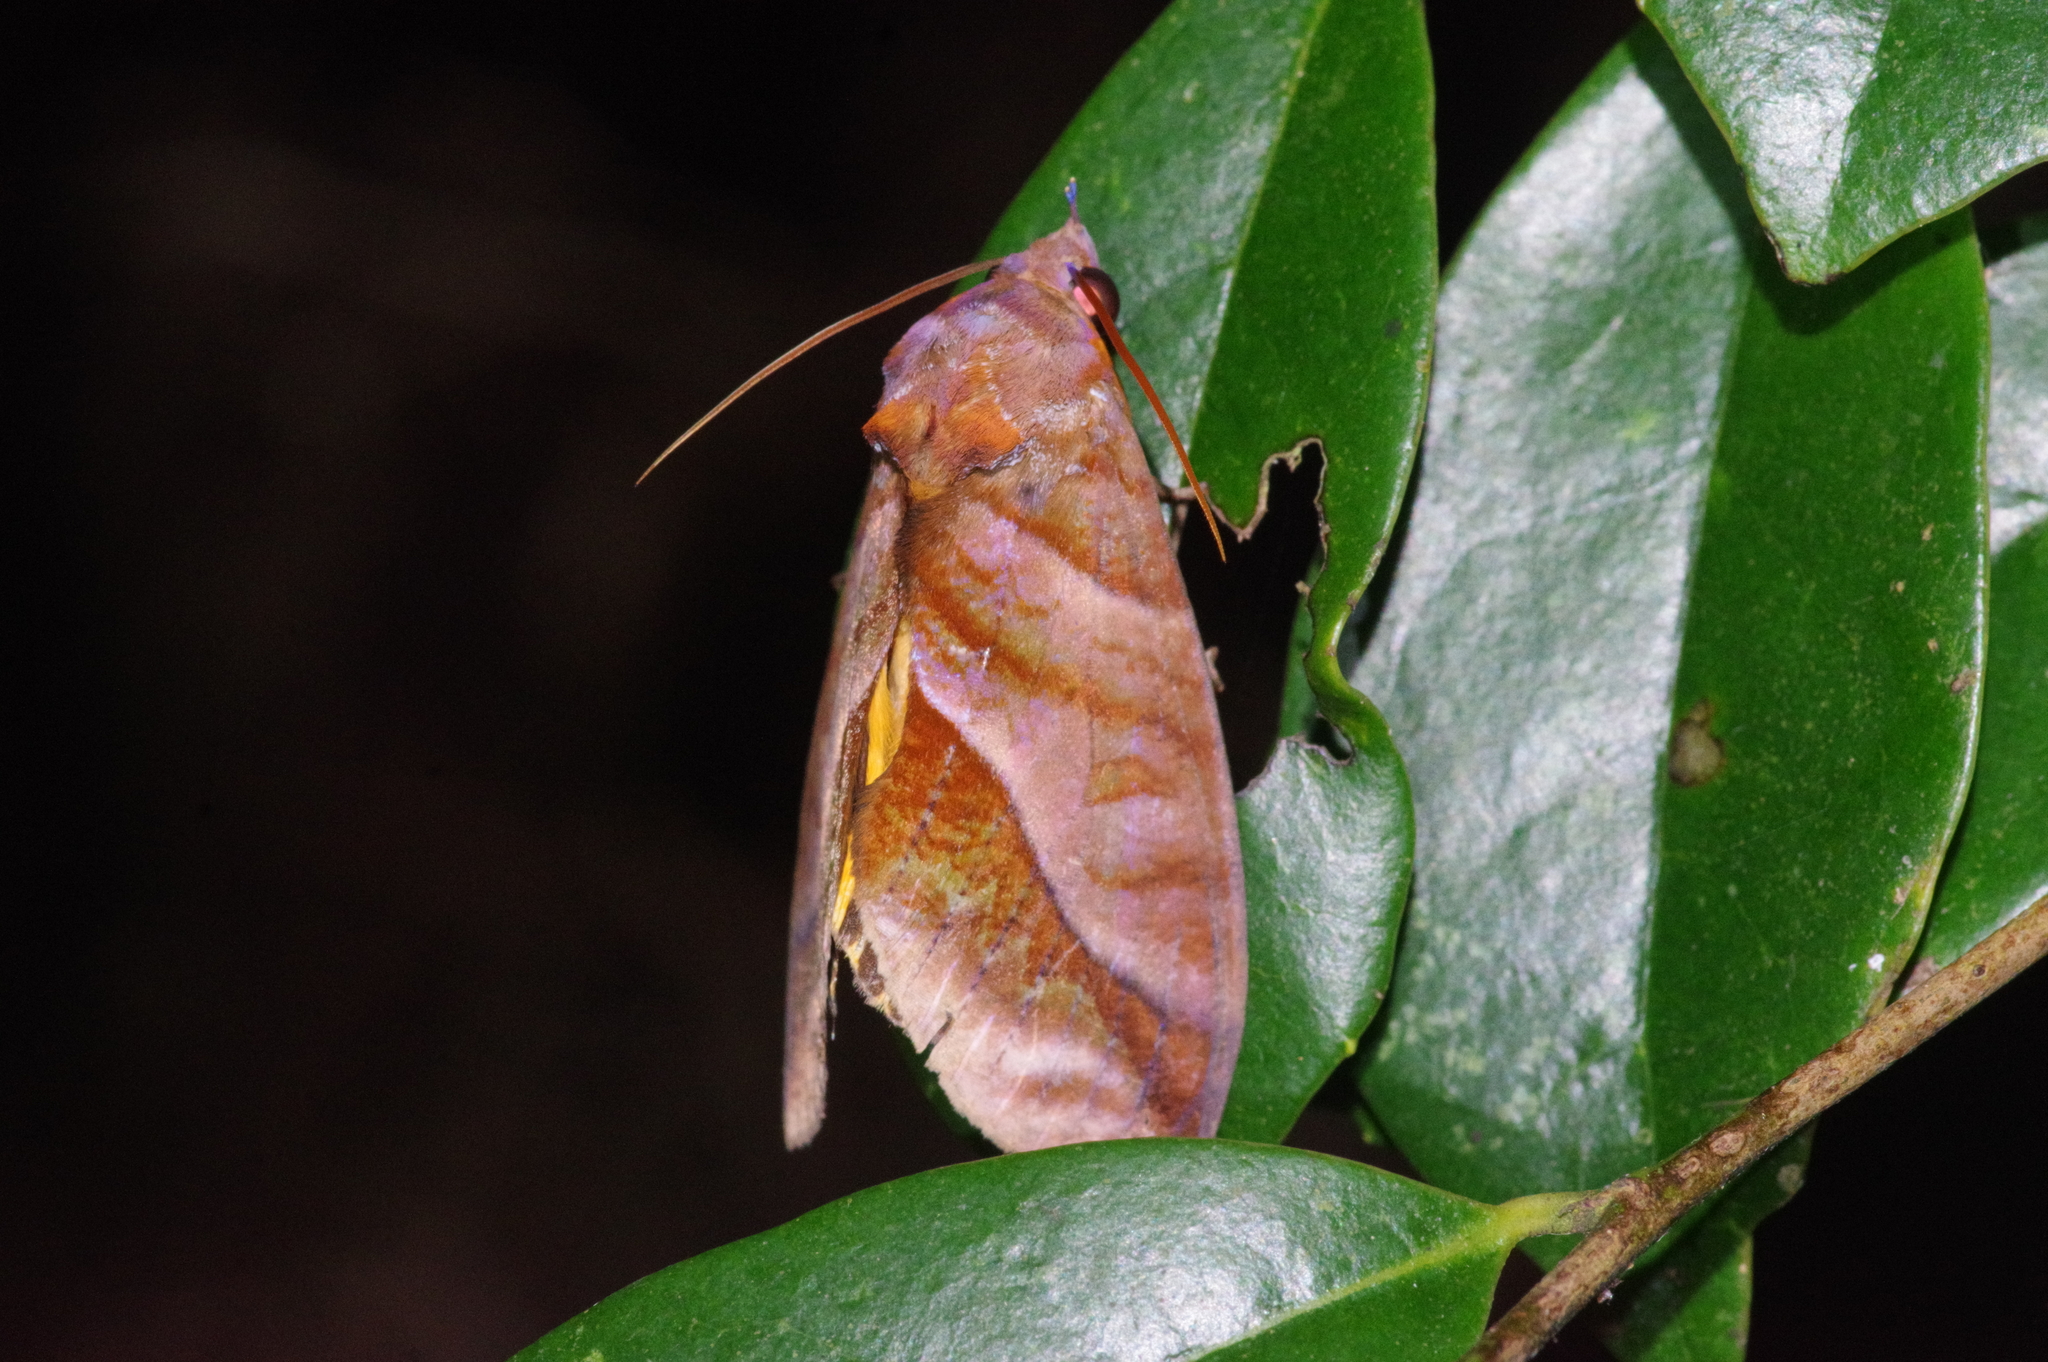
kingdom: Animalia
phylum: Arthropoda
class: Insecta
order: Lepidoptera
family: Erebidae
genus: Eudocima
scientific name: Eudocima homaena
